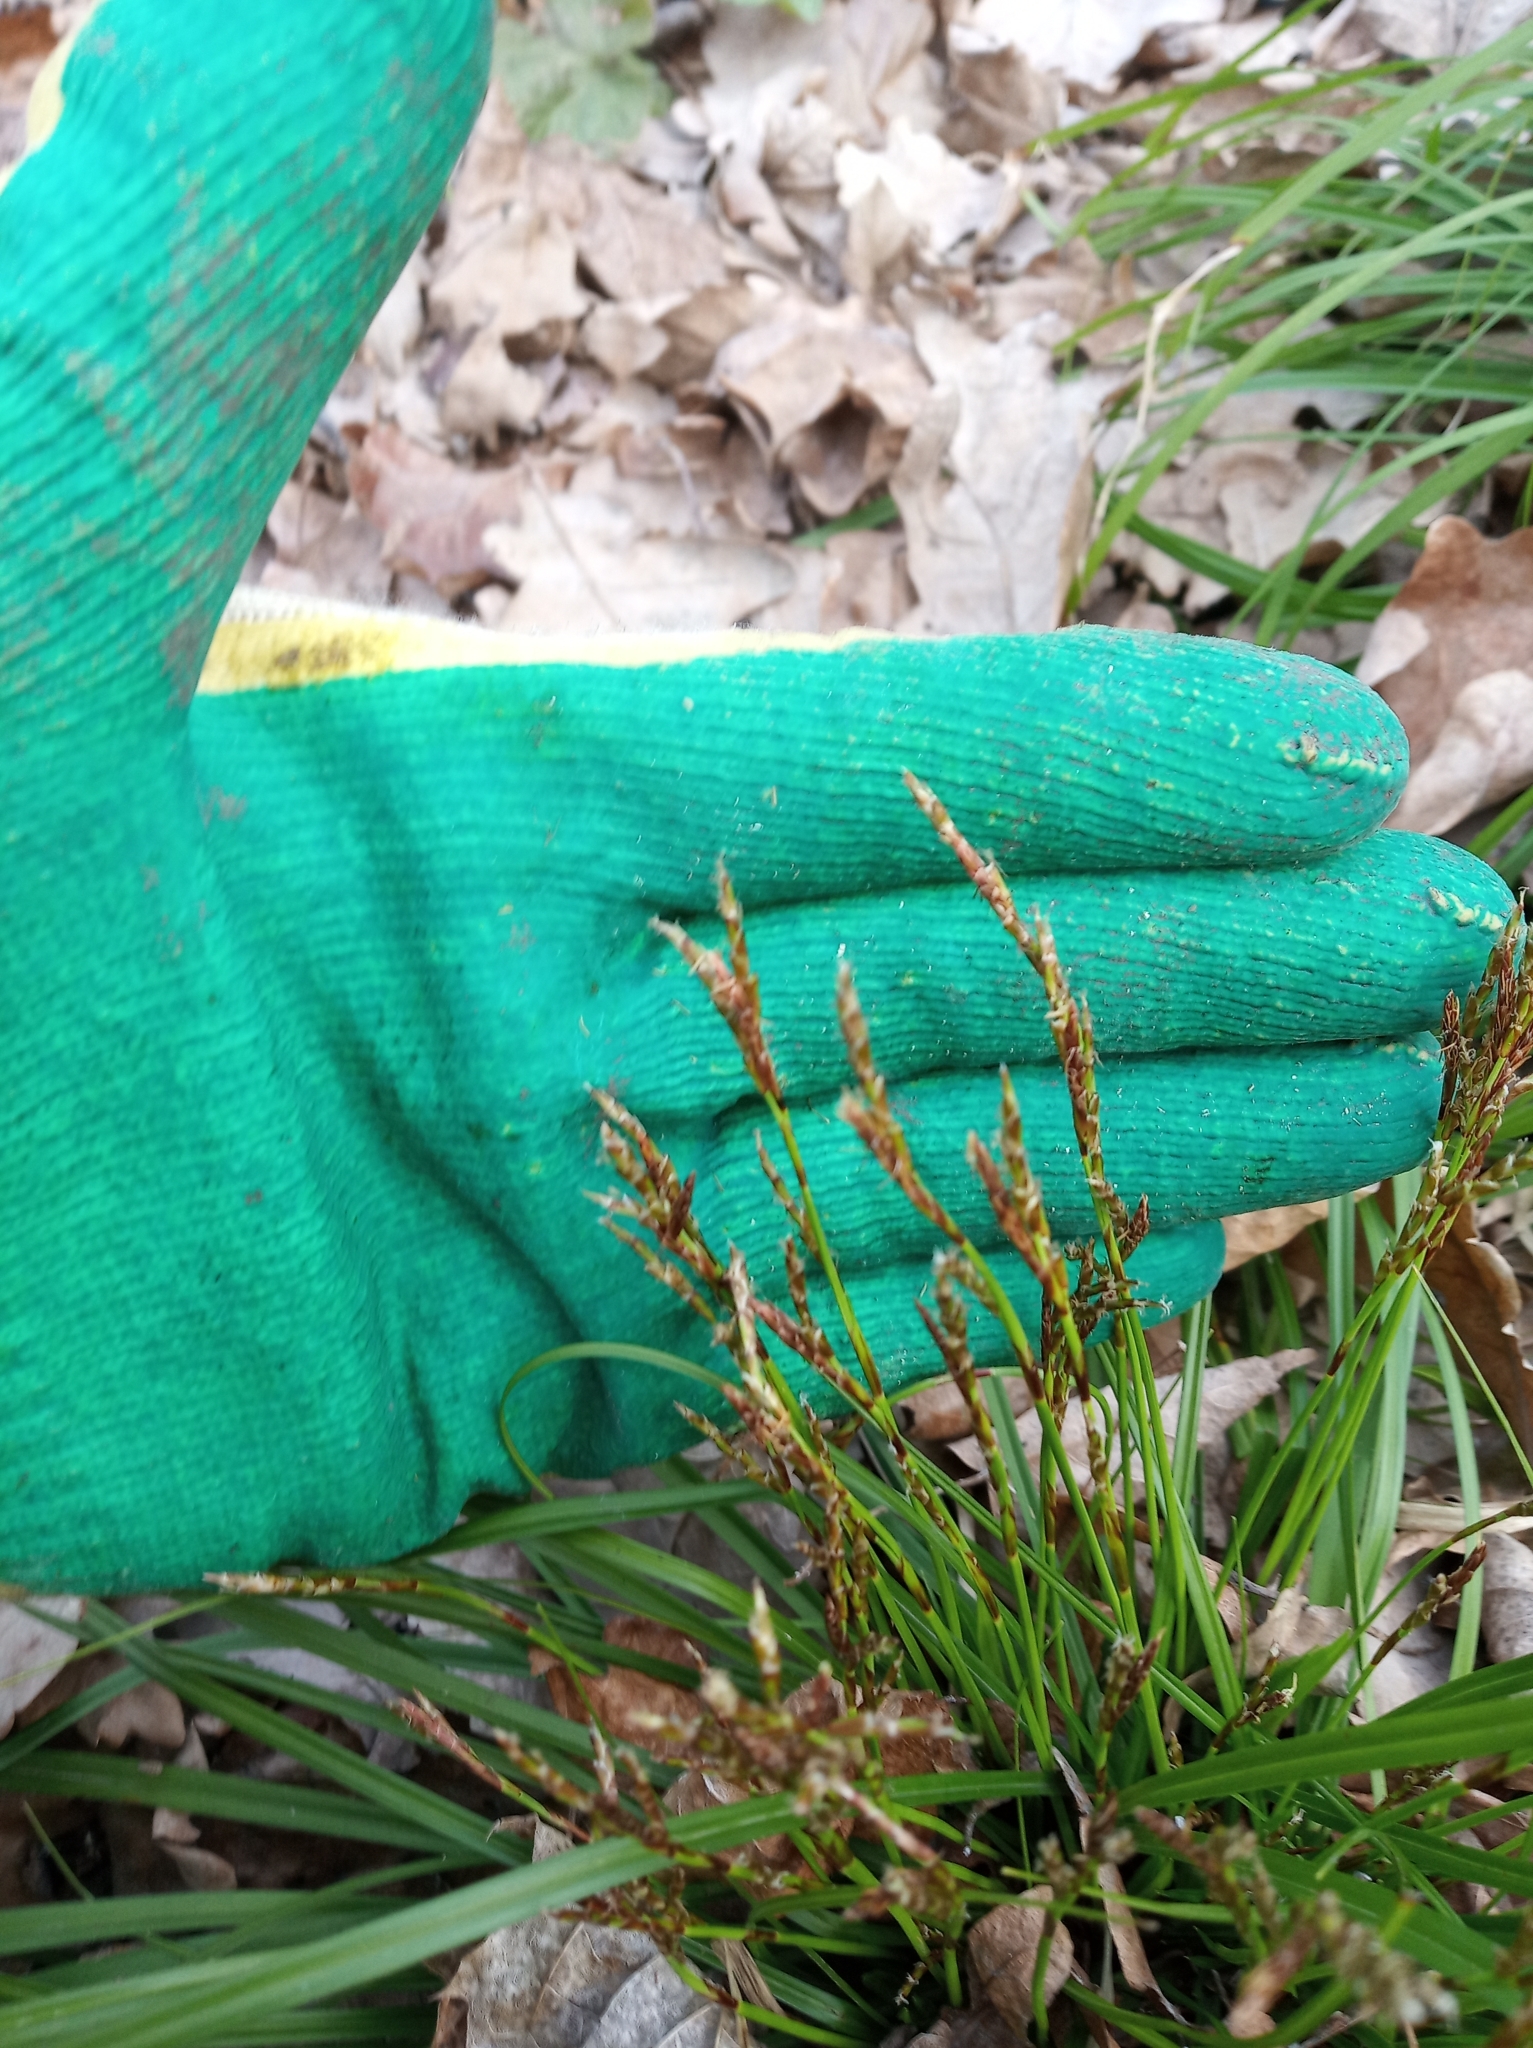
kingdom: Plantae
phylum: Tracheophyta
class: Liliopsida
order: Poales
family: Cyperaceae
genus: Carex
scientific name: Carex digitata
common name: Fingered sedge
